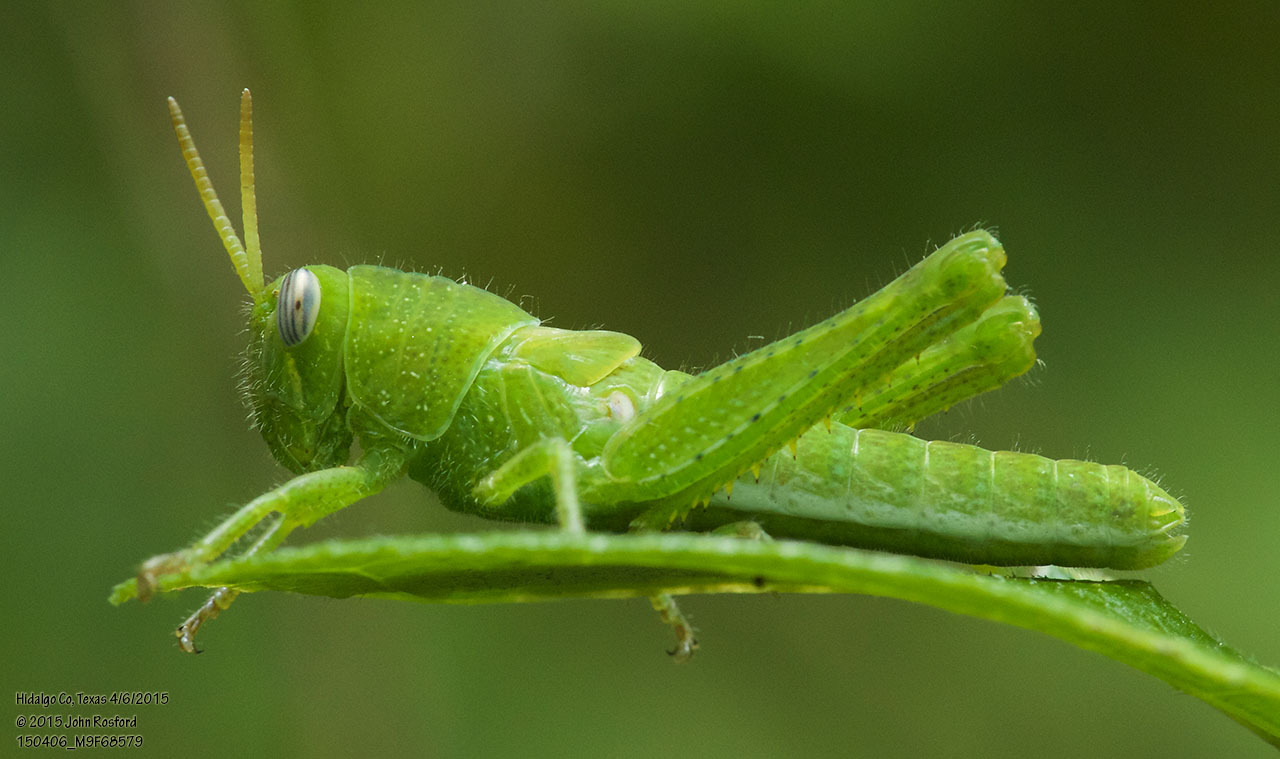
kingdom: Animalia
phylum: Arthropoda
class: Insecta
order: Orthoptera
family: Acrididae
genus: Schistocerca
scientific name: Schistocerca nitens
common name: Vagrant grasshopper
